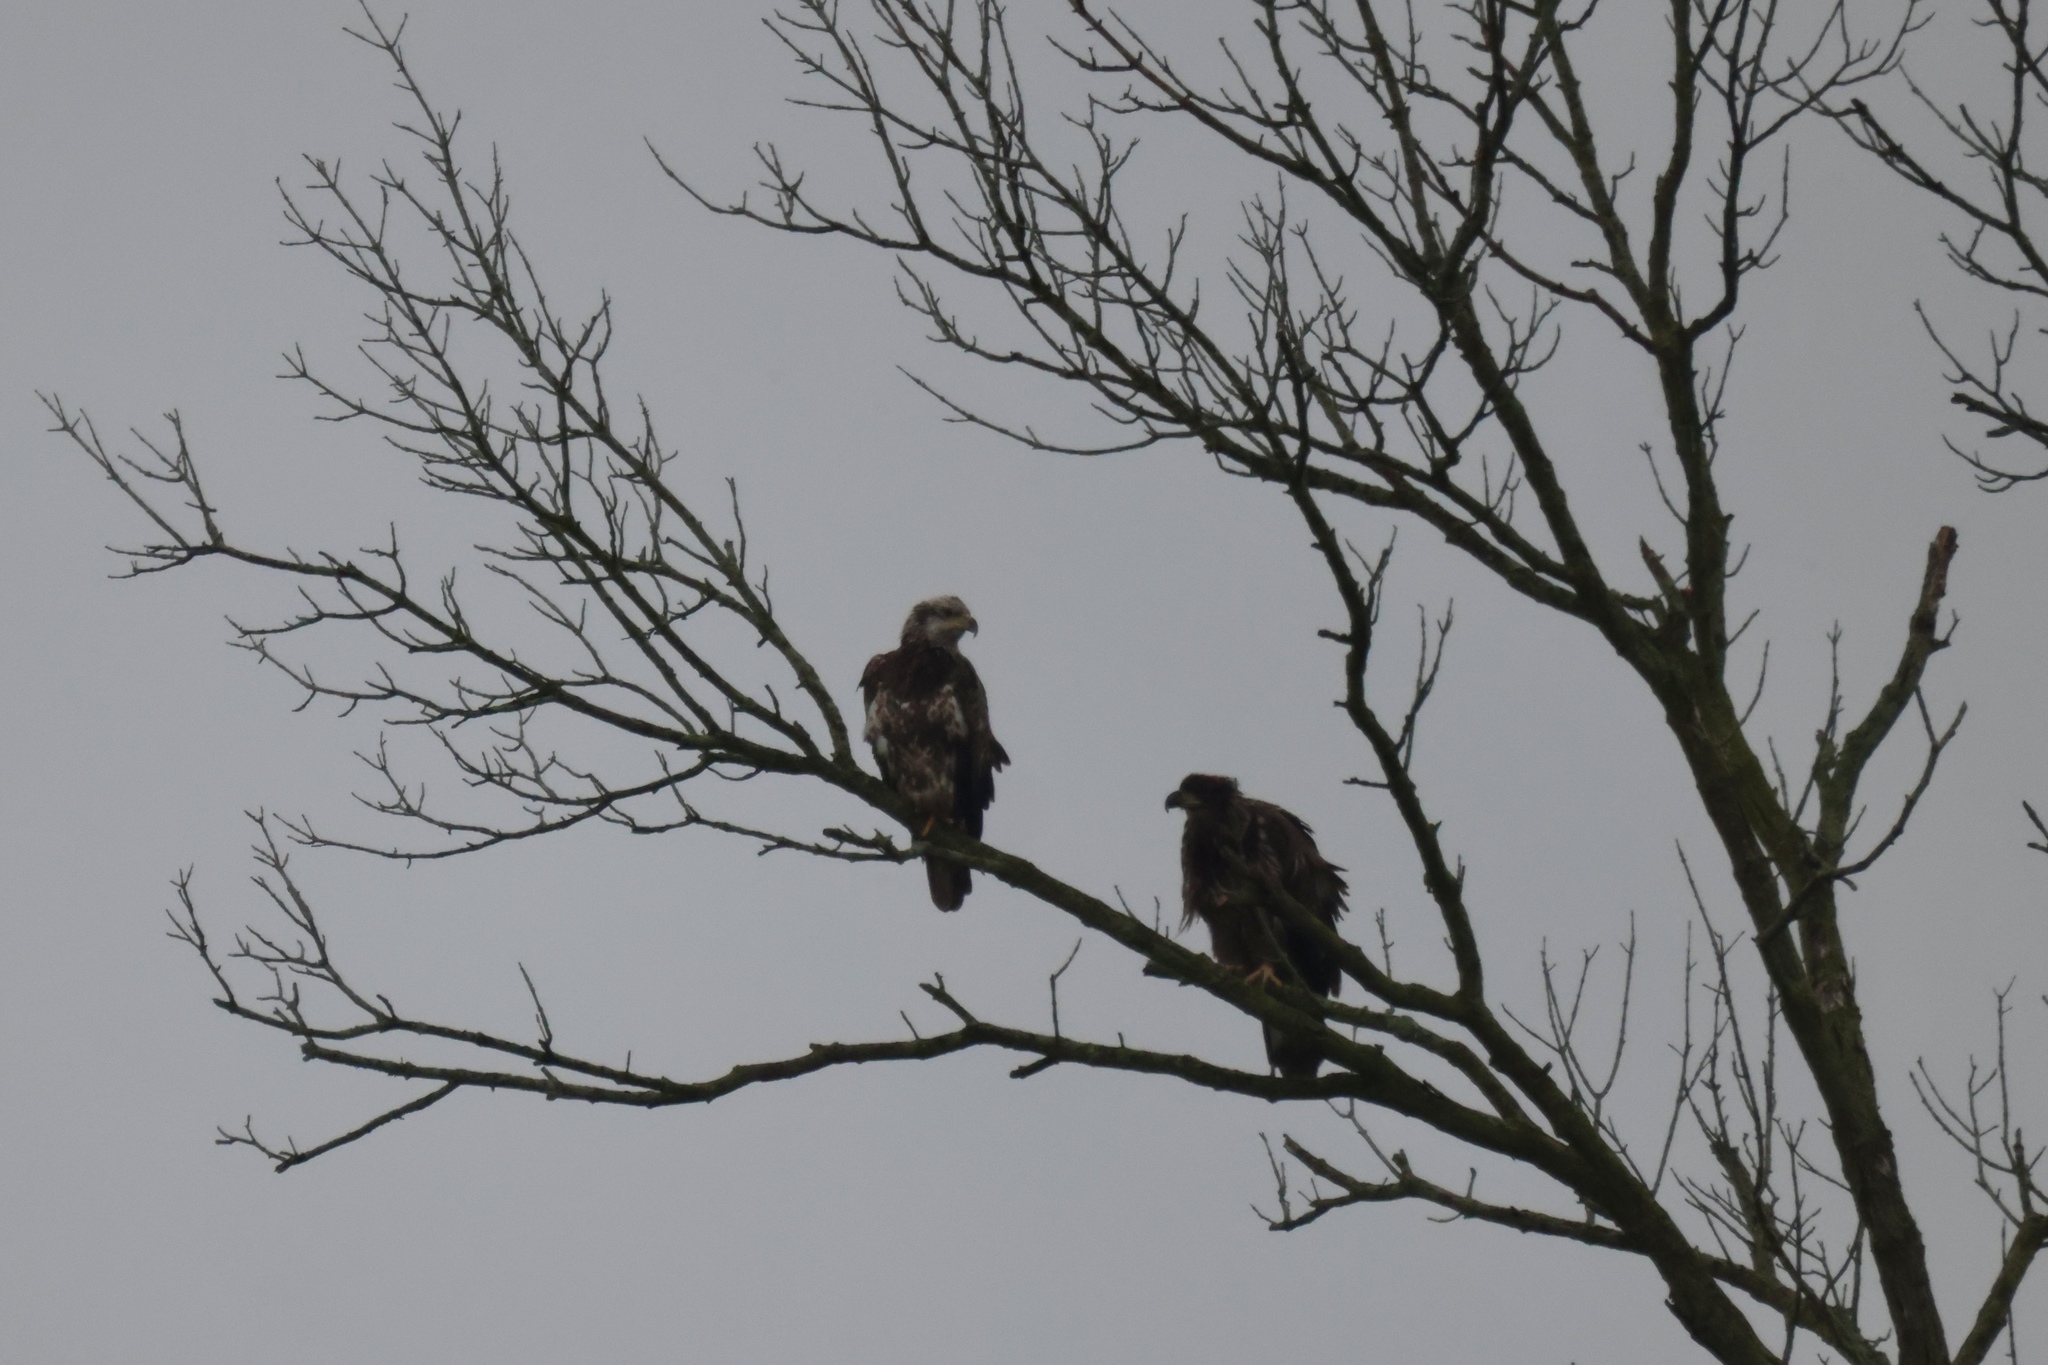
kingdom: Animalia
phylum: Chordata
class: Aves
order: Accipitriformes
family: Accipitridae
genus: Haliaeetus
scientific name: Haliaeetus leucocephalus
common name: Bald eagle
